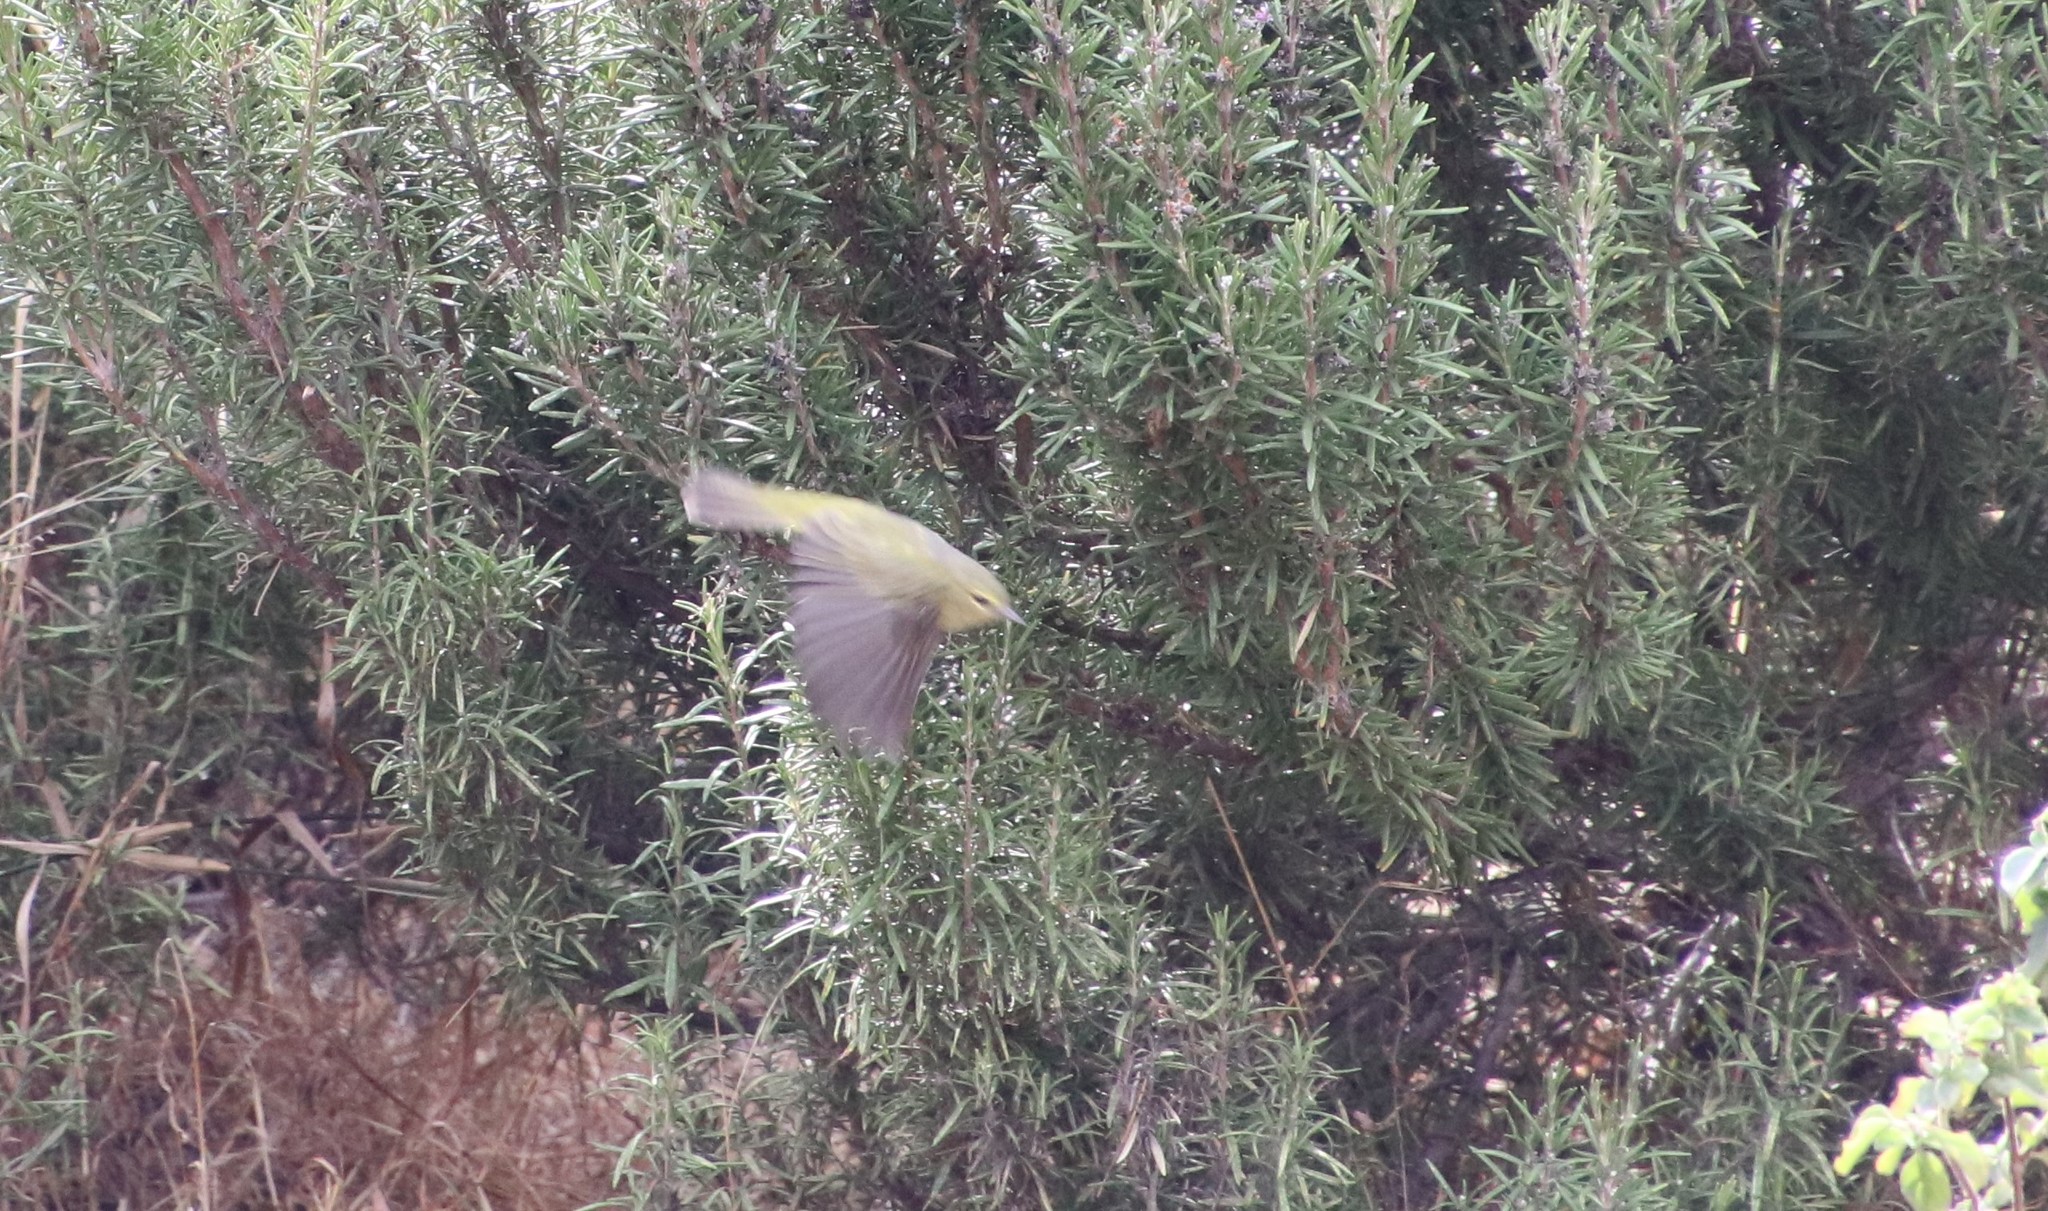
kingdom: Animalia
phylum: Chordata
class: Aves
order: Passeriformes
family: Parulidae
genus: Leiothlypis
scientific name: Leiothlypis celata
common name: Orange-crowned warbler
